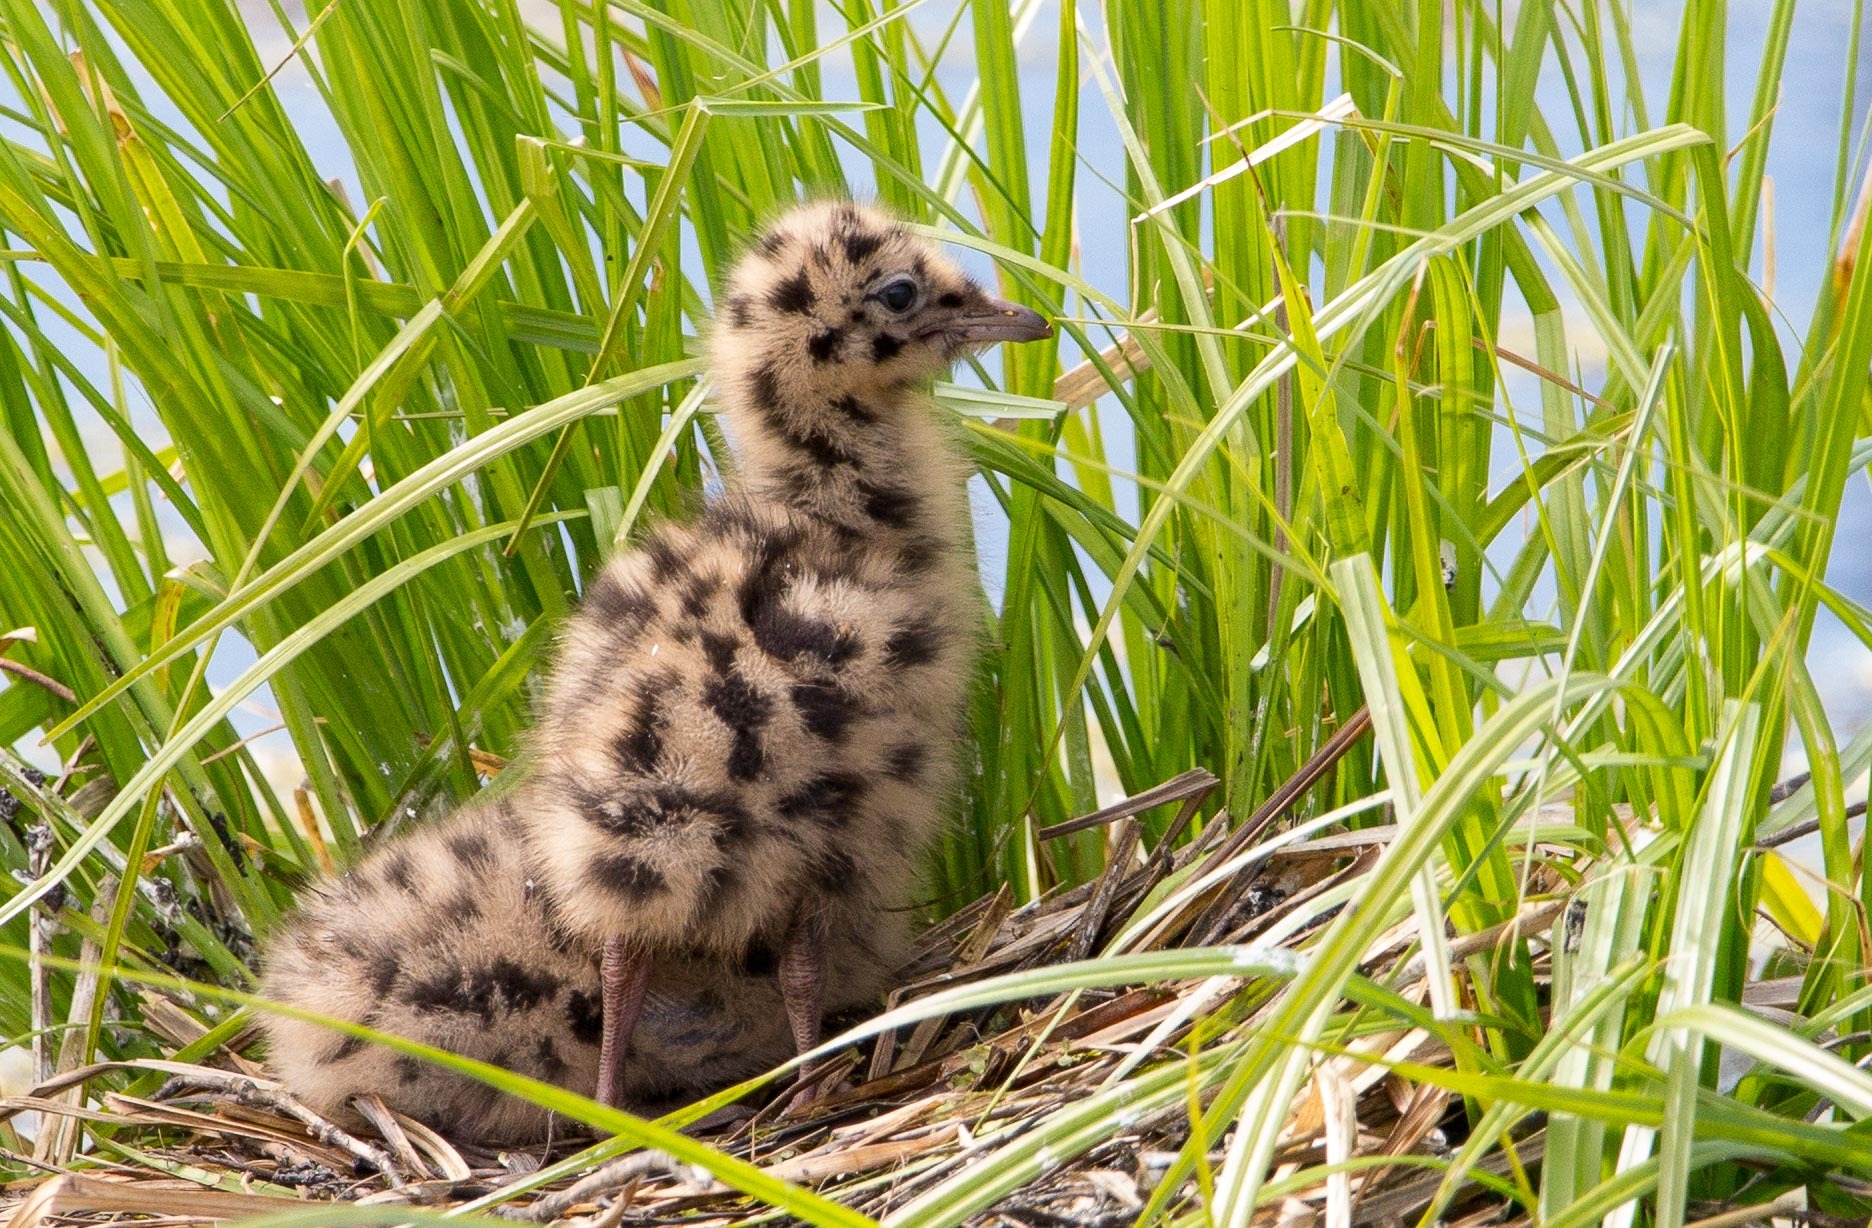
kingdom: Animalia
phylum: Chordata
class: Aves
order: Charadriiformes
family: Laridae
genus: Chroicocephalus
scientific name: Chroicocephalus ridibundus
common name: Black-headed gull
